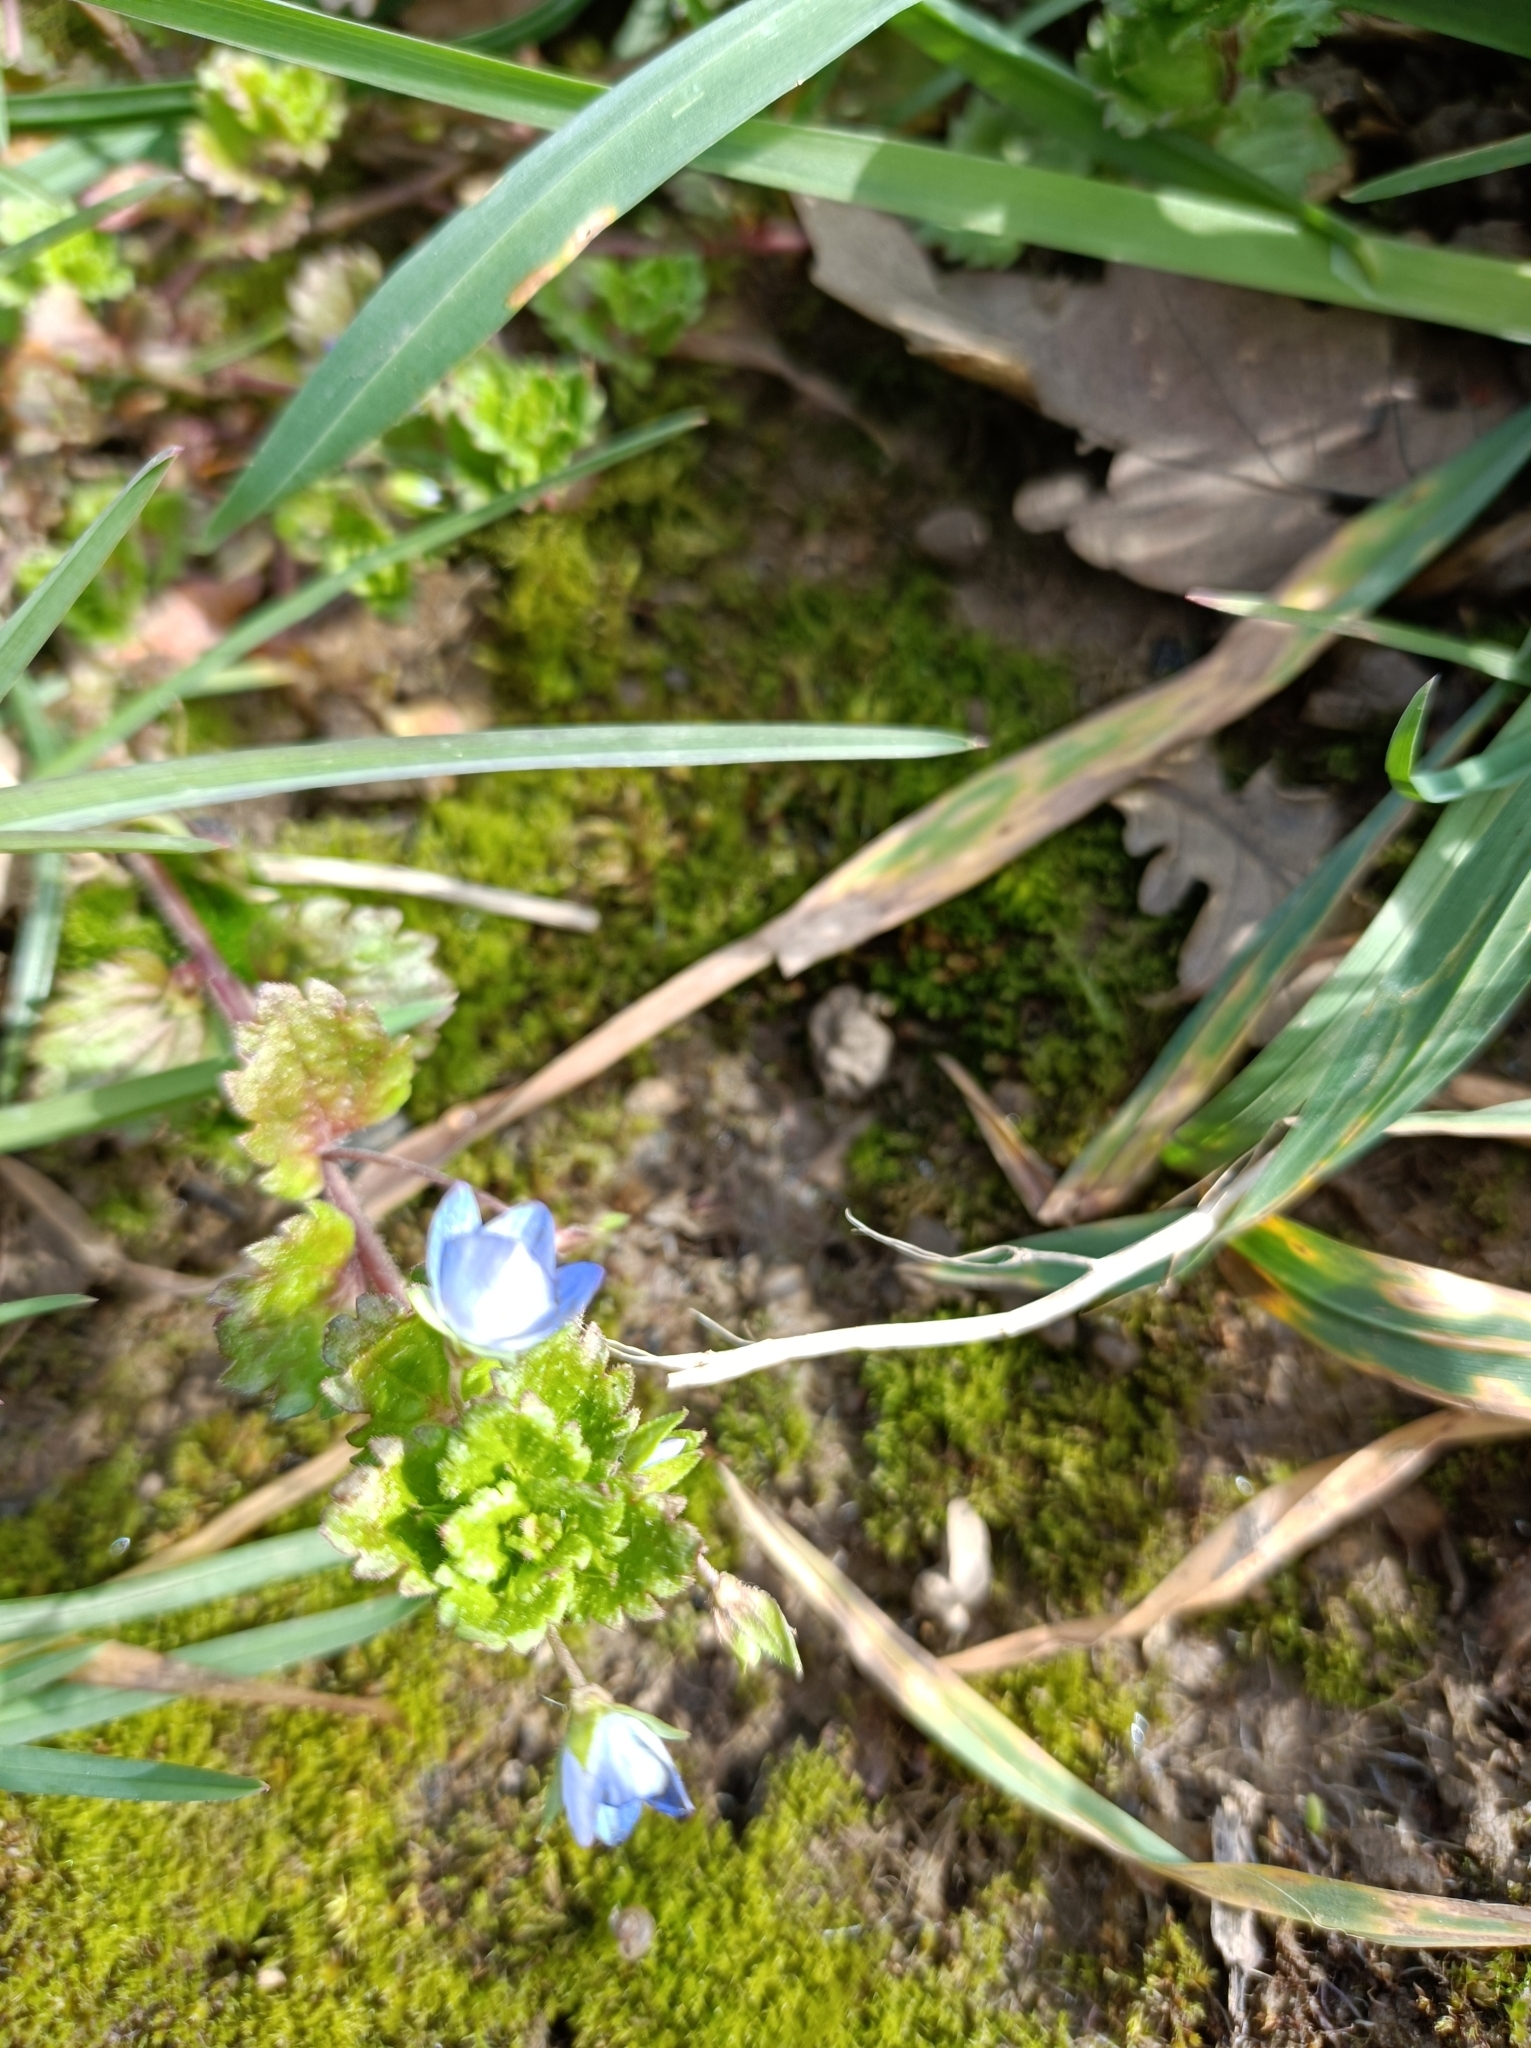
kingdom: Plantae
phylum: Tracheophyta
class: Magnoliopsida
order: Lamiales
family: Plantaginaceae
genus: Veronica
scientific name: Veronica persica
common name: Common field-speedwell
